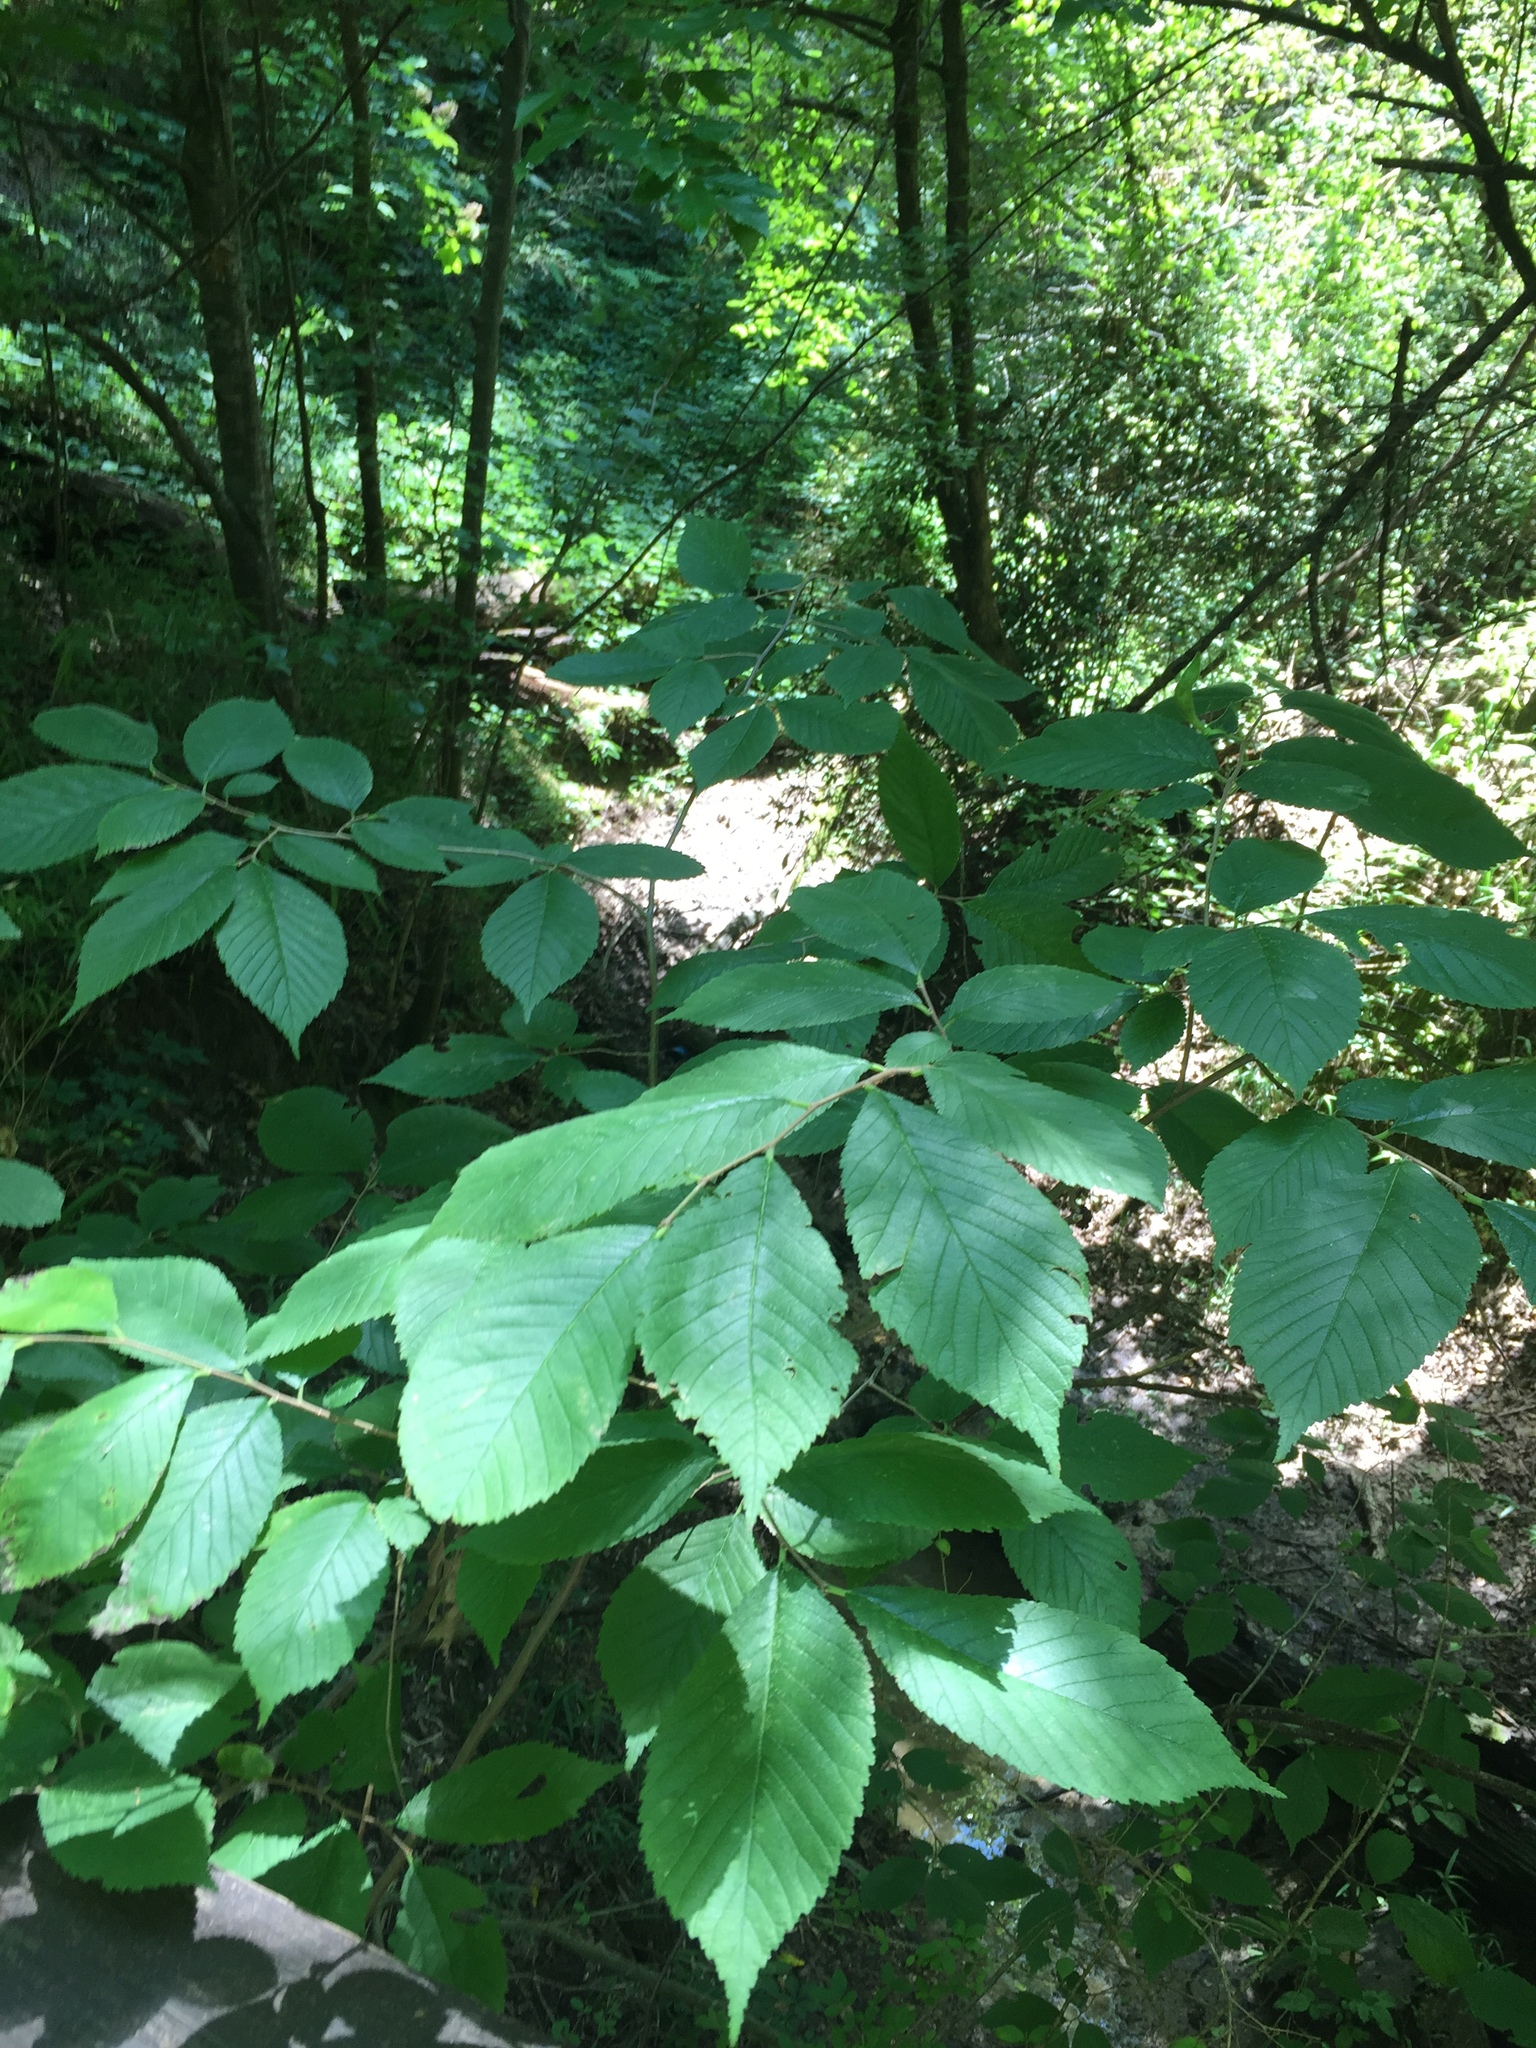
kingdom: Plantae
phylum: Tracheophyta
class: Magnoliopsida
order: Rosales
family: Ulmaceae
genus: Ulmus
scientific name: Ulmus rubra
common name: Slippery elm
